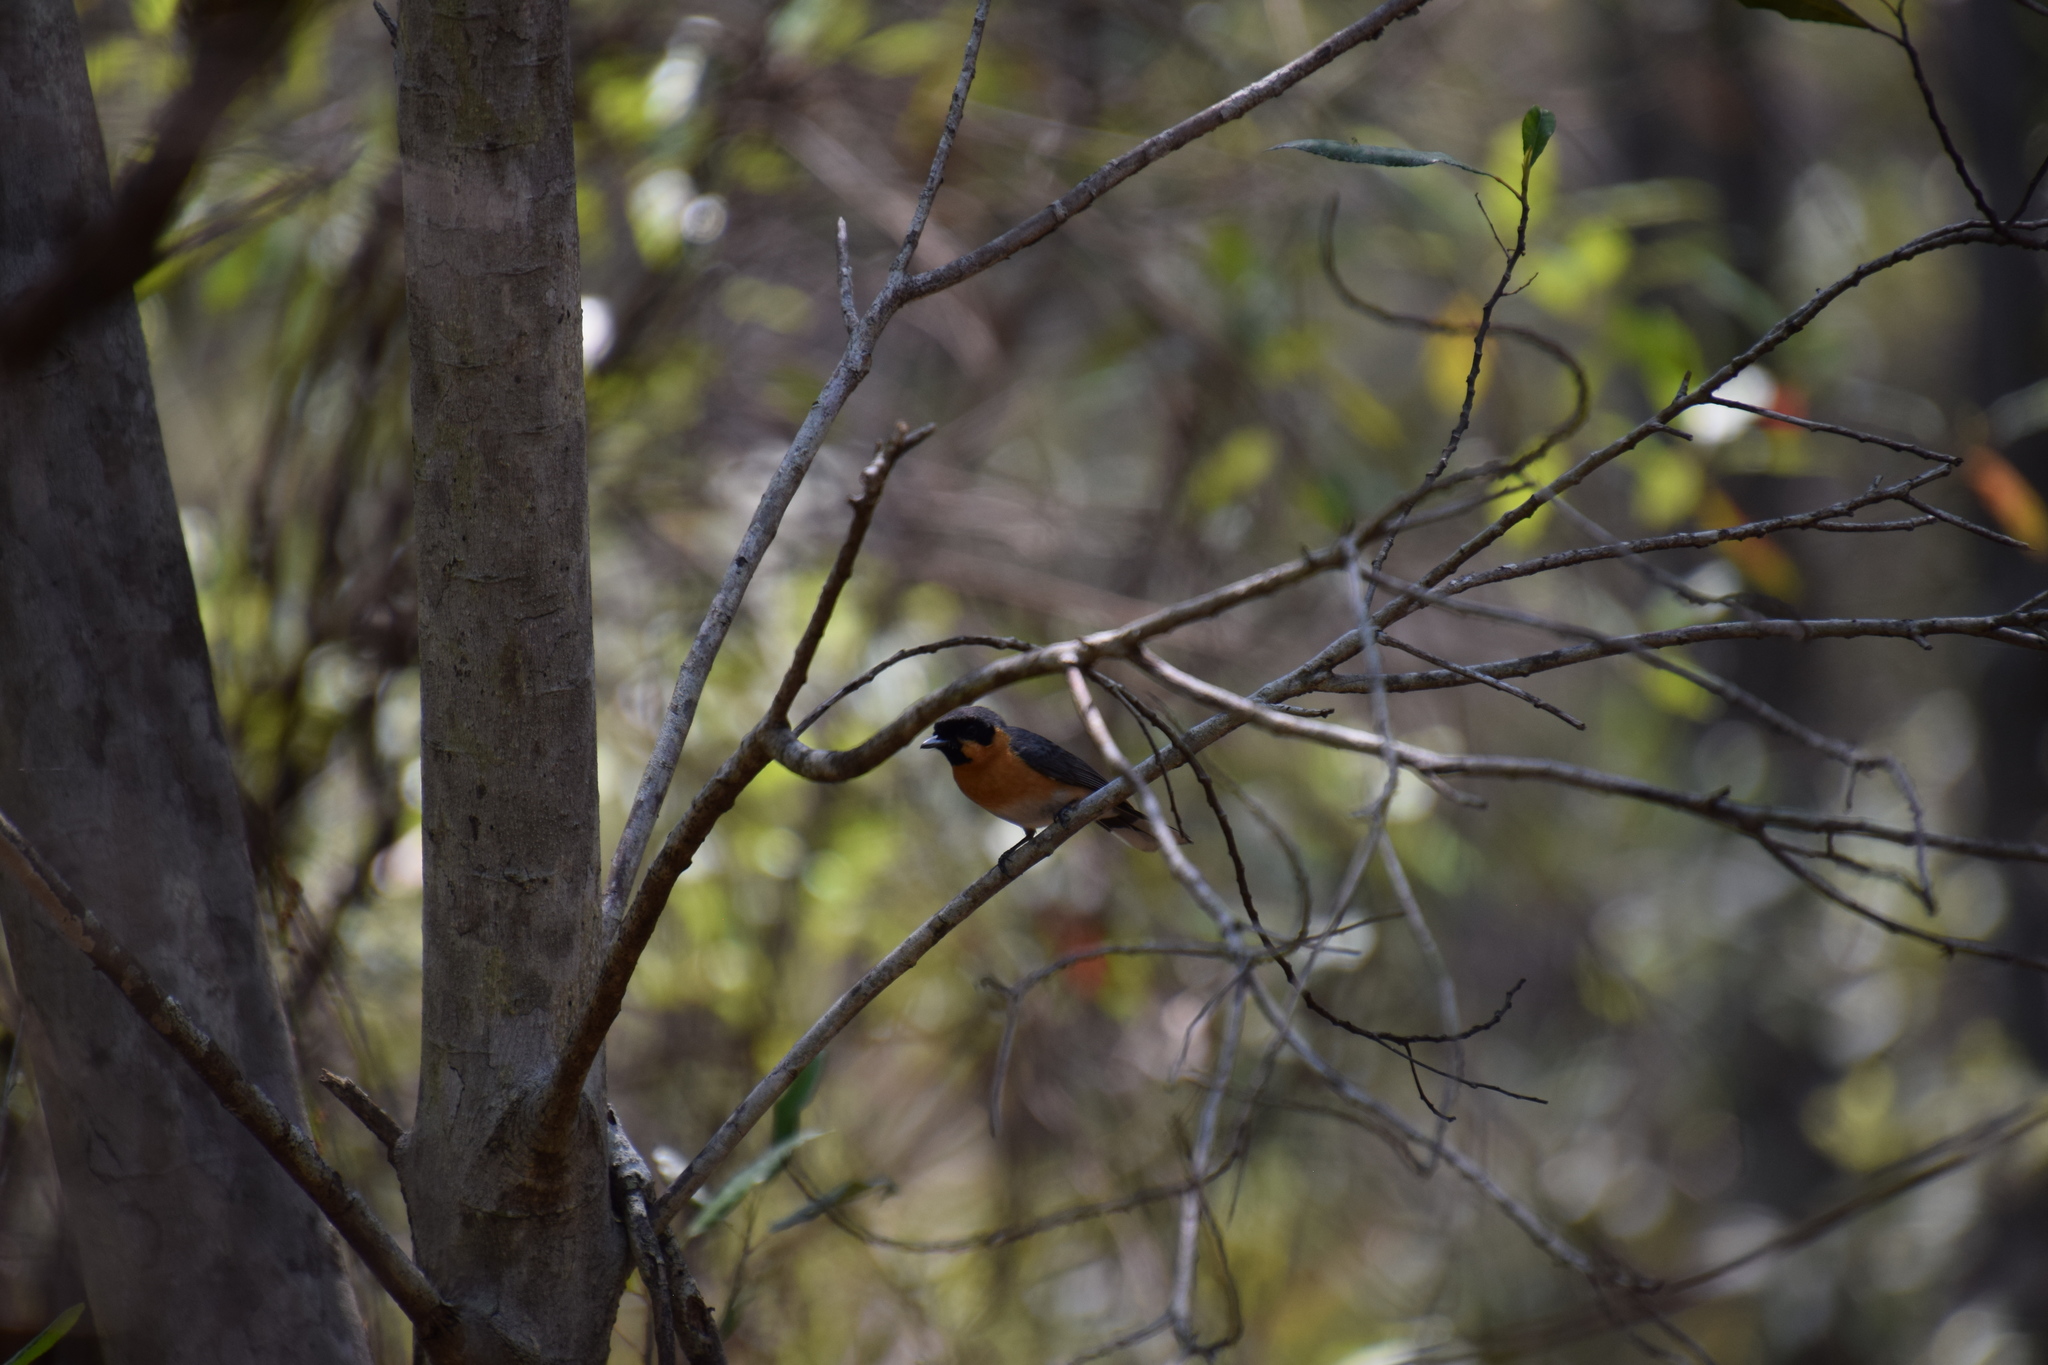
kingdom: Animalia
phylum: Chordata
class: Aves
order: Passeriformes
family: Monarchidae
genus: Symposiachrus
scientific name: Symposiachrus trivirgatus
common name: Spectacled monarch
